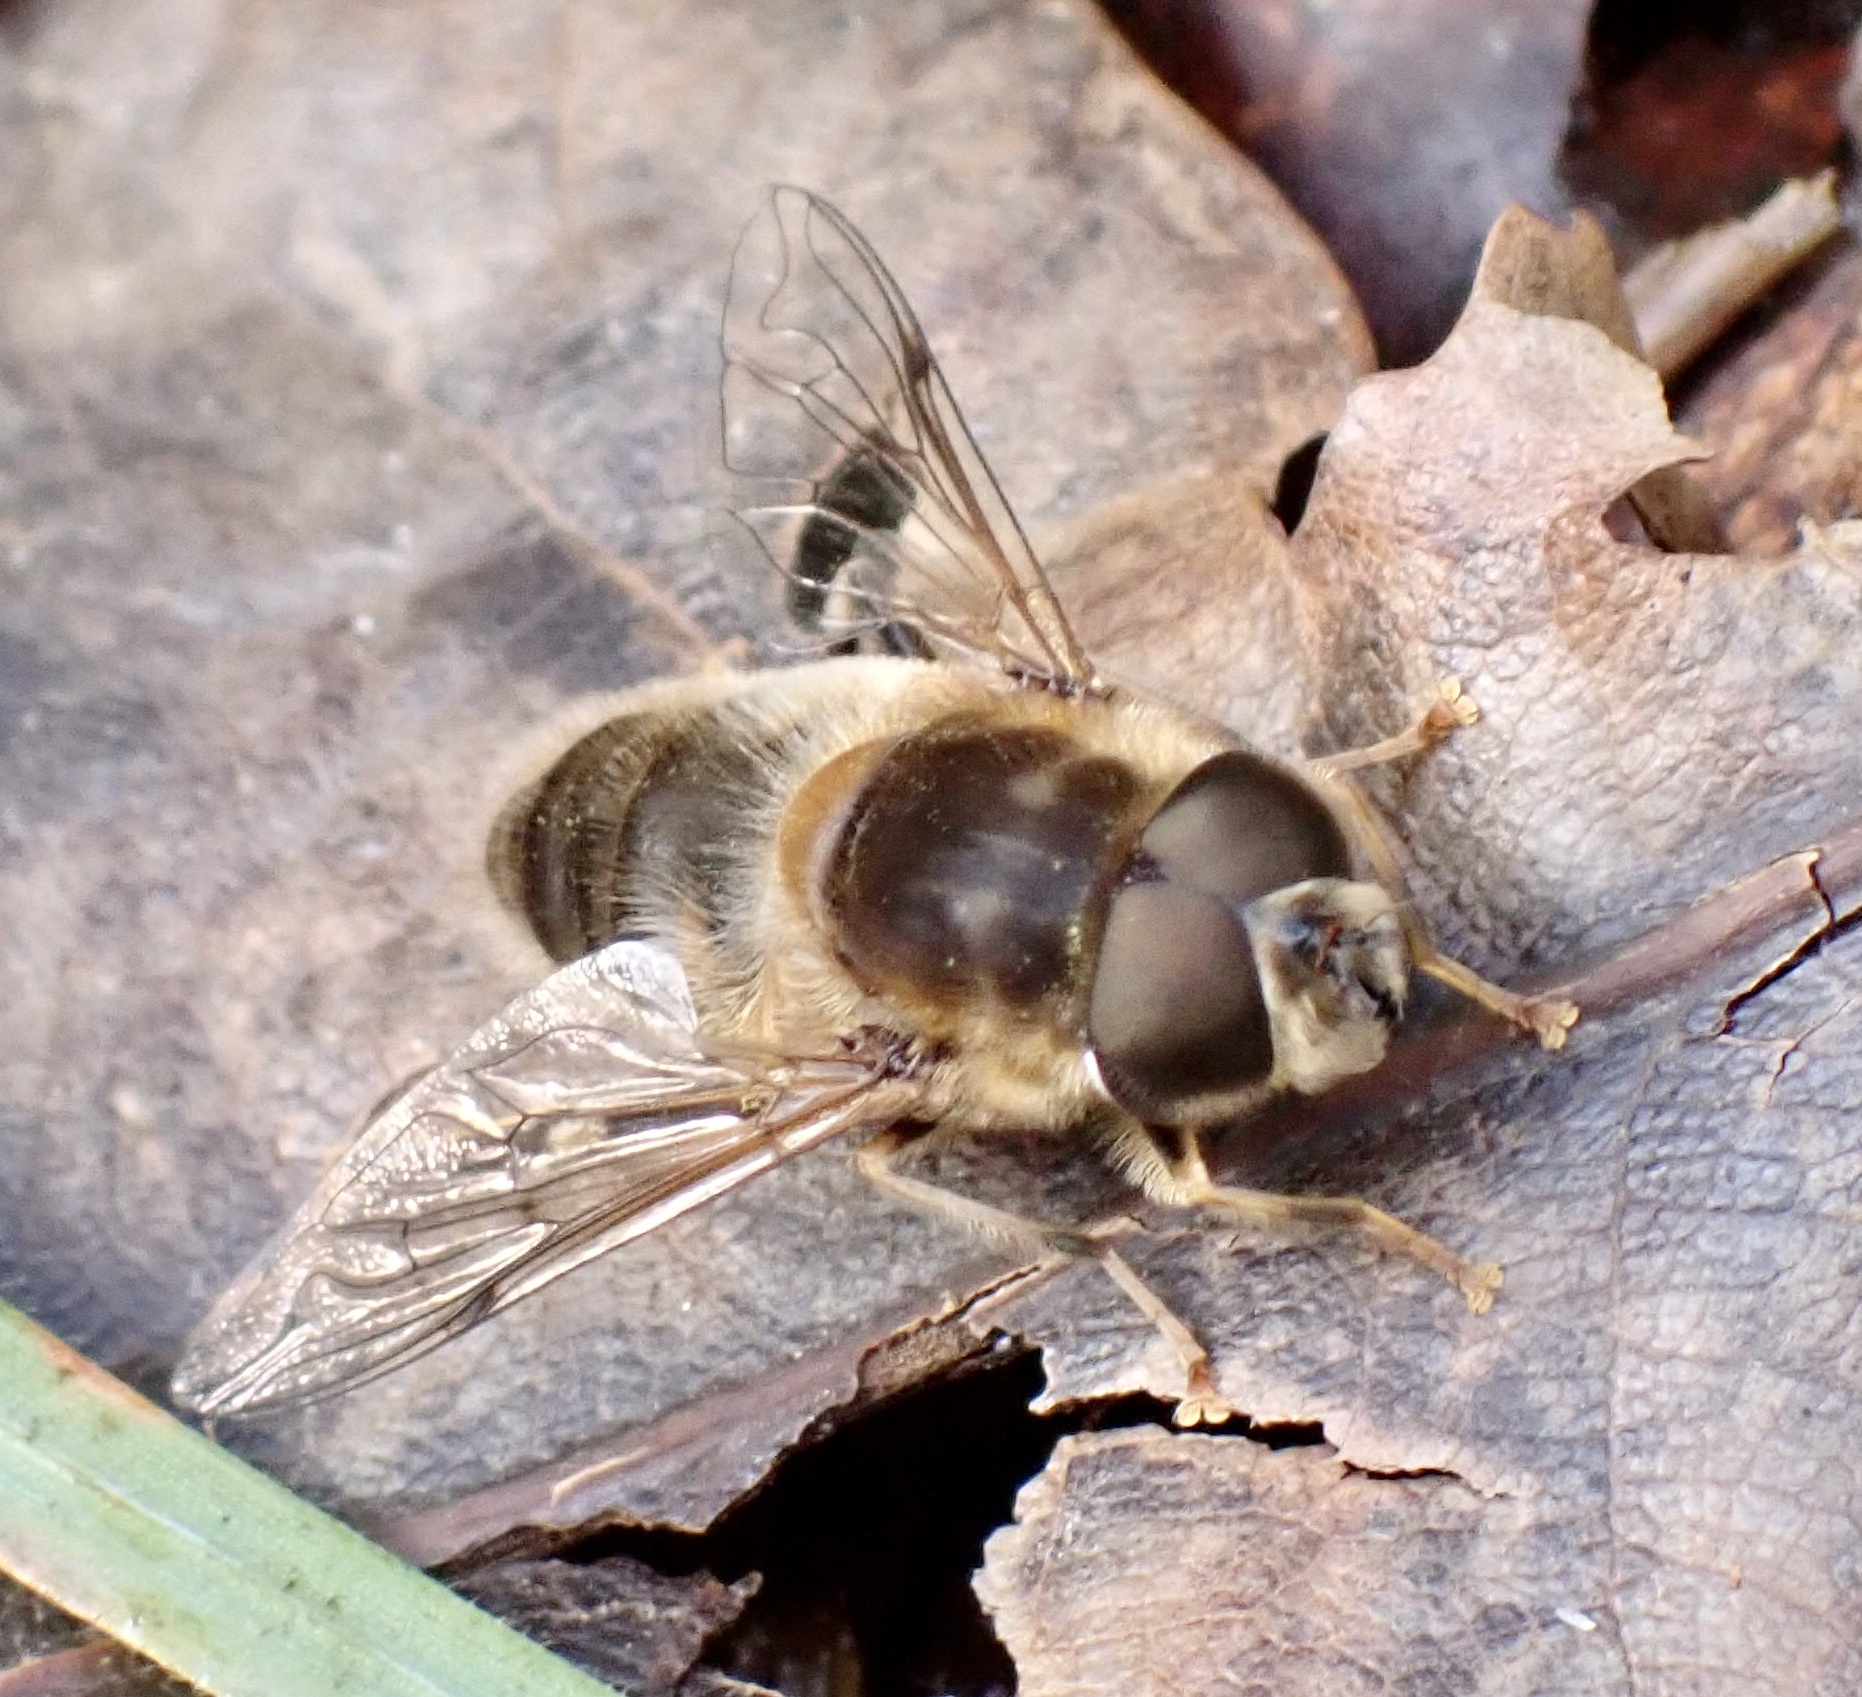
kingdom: Animalia
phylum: Arthropoda
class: Insecta
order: Diptera
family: Syrphidae
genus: Eristalis
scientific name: Eristalis pertinax
